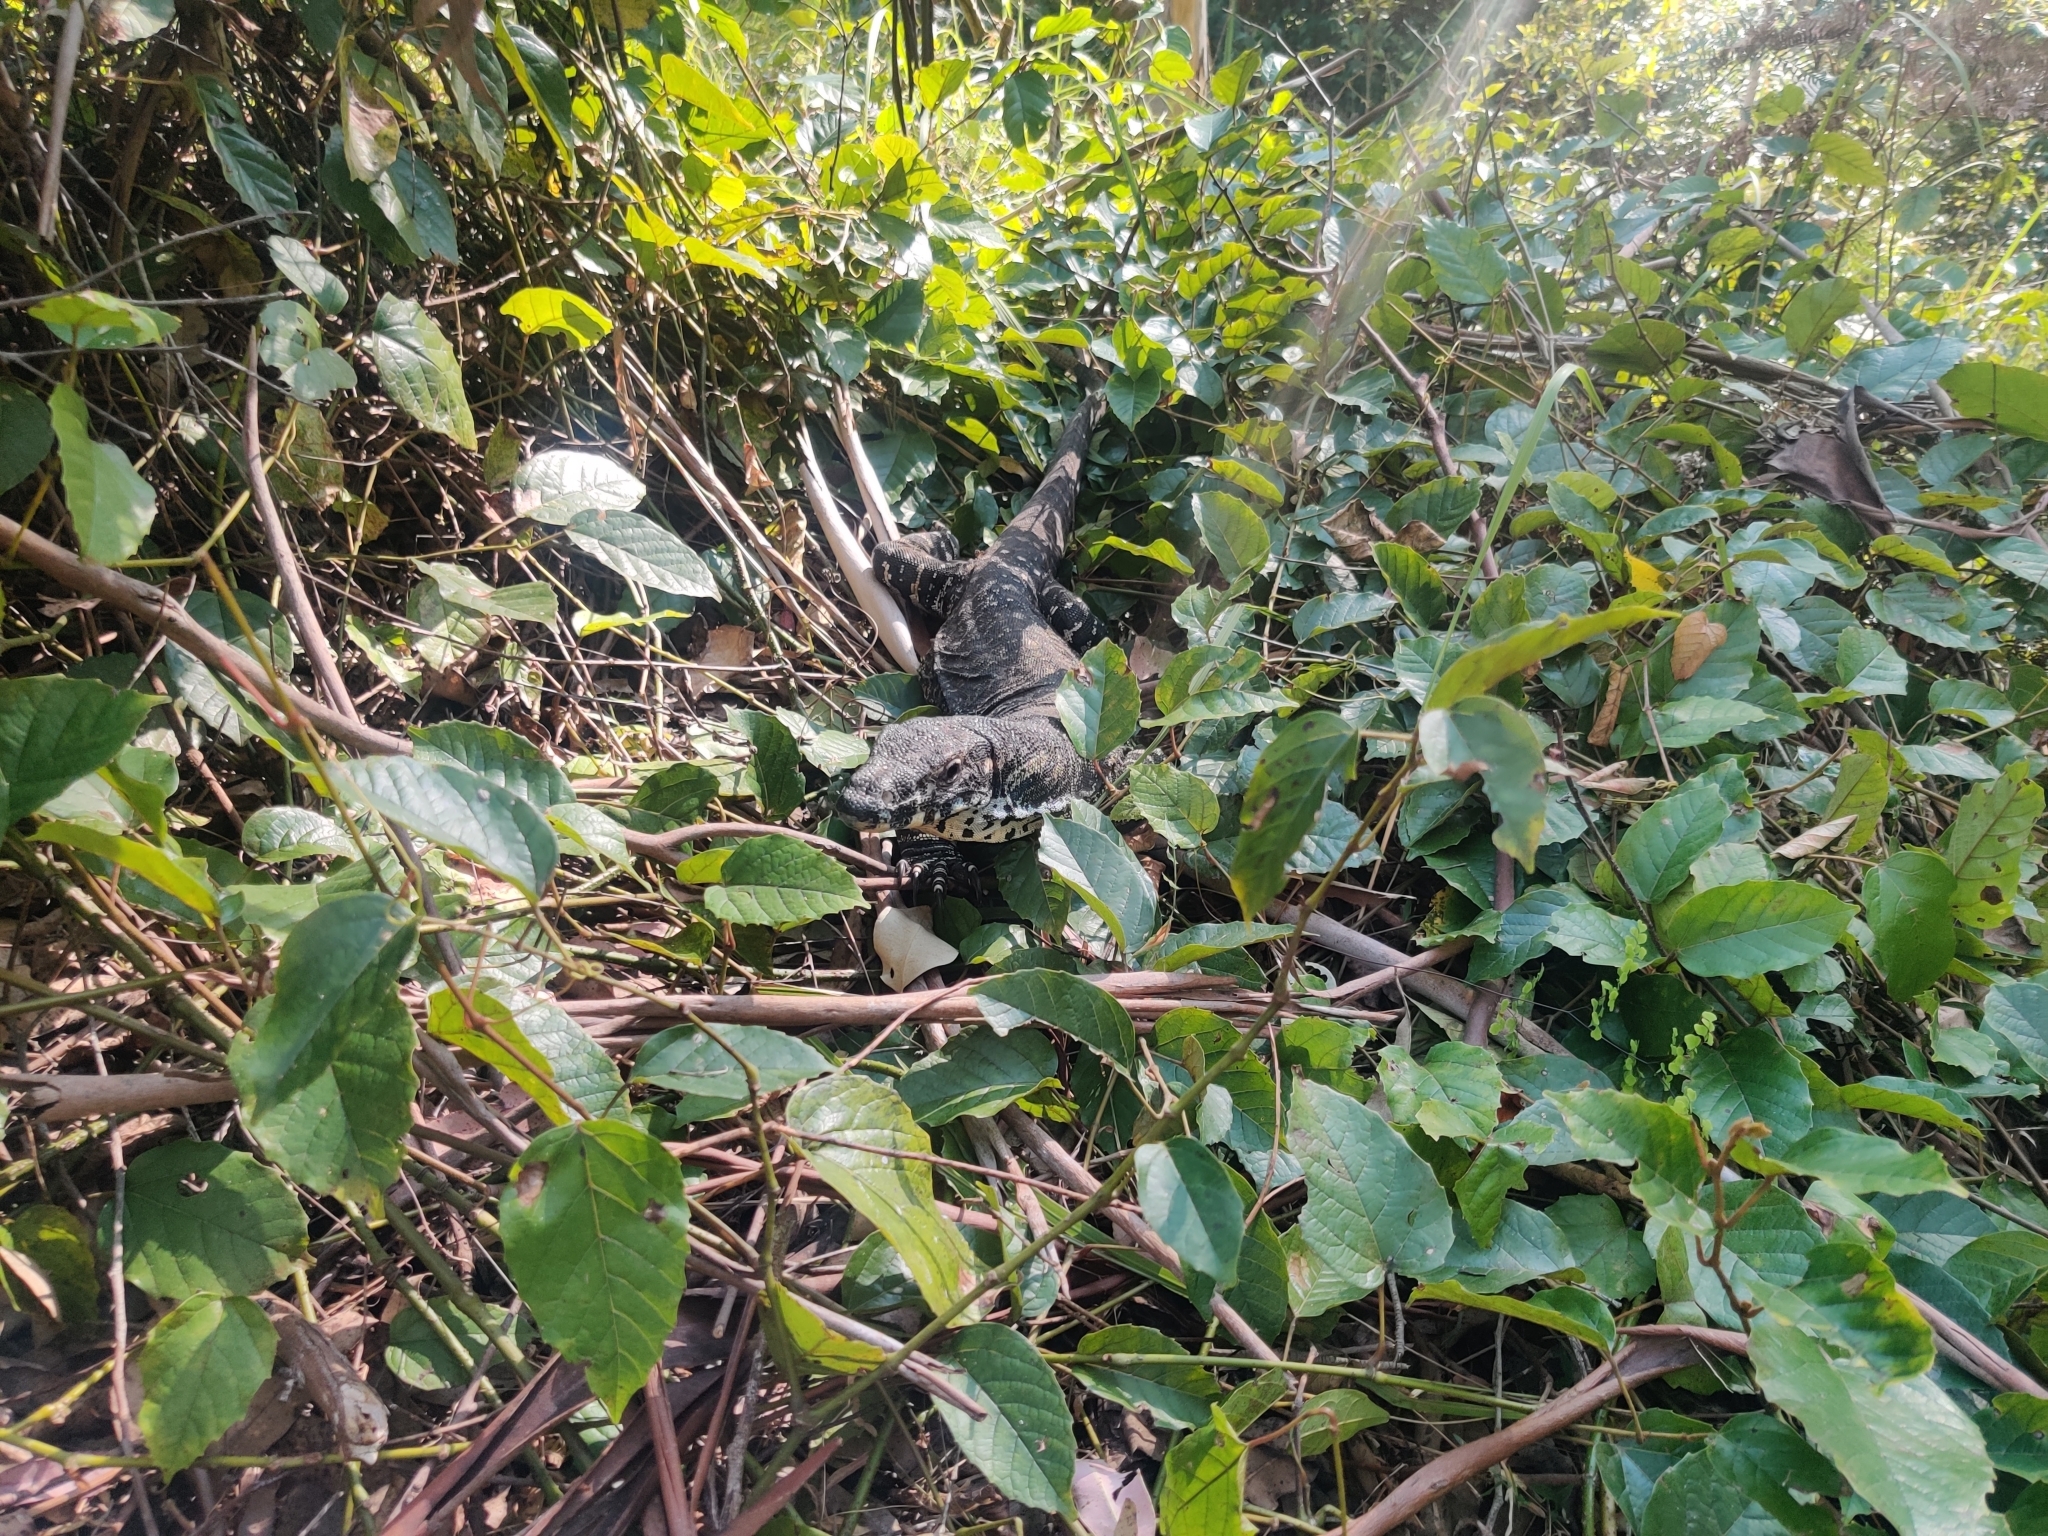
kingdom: Animalia
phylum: Chordata
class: Squamata
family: Varanidae
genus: Varanus
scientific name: Varanus varius
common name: Lace monitor
